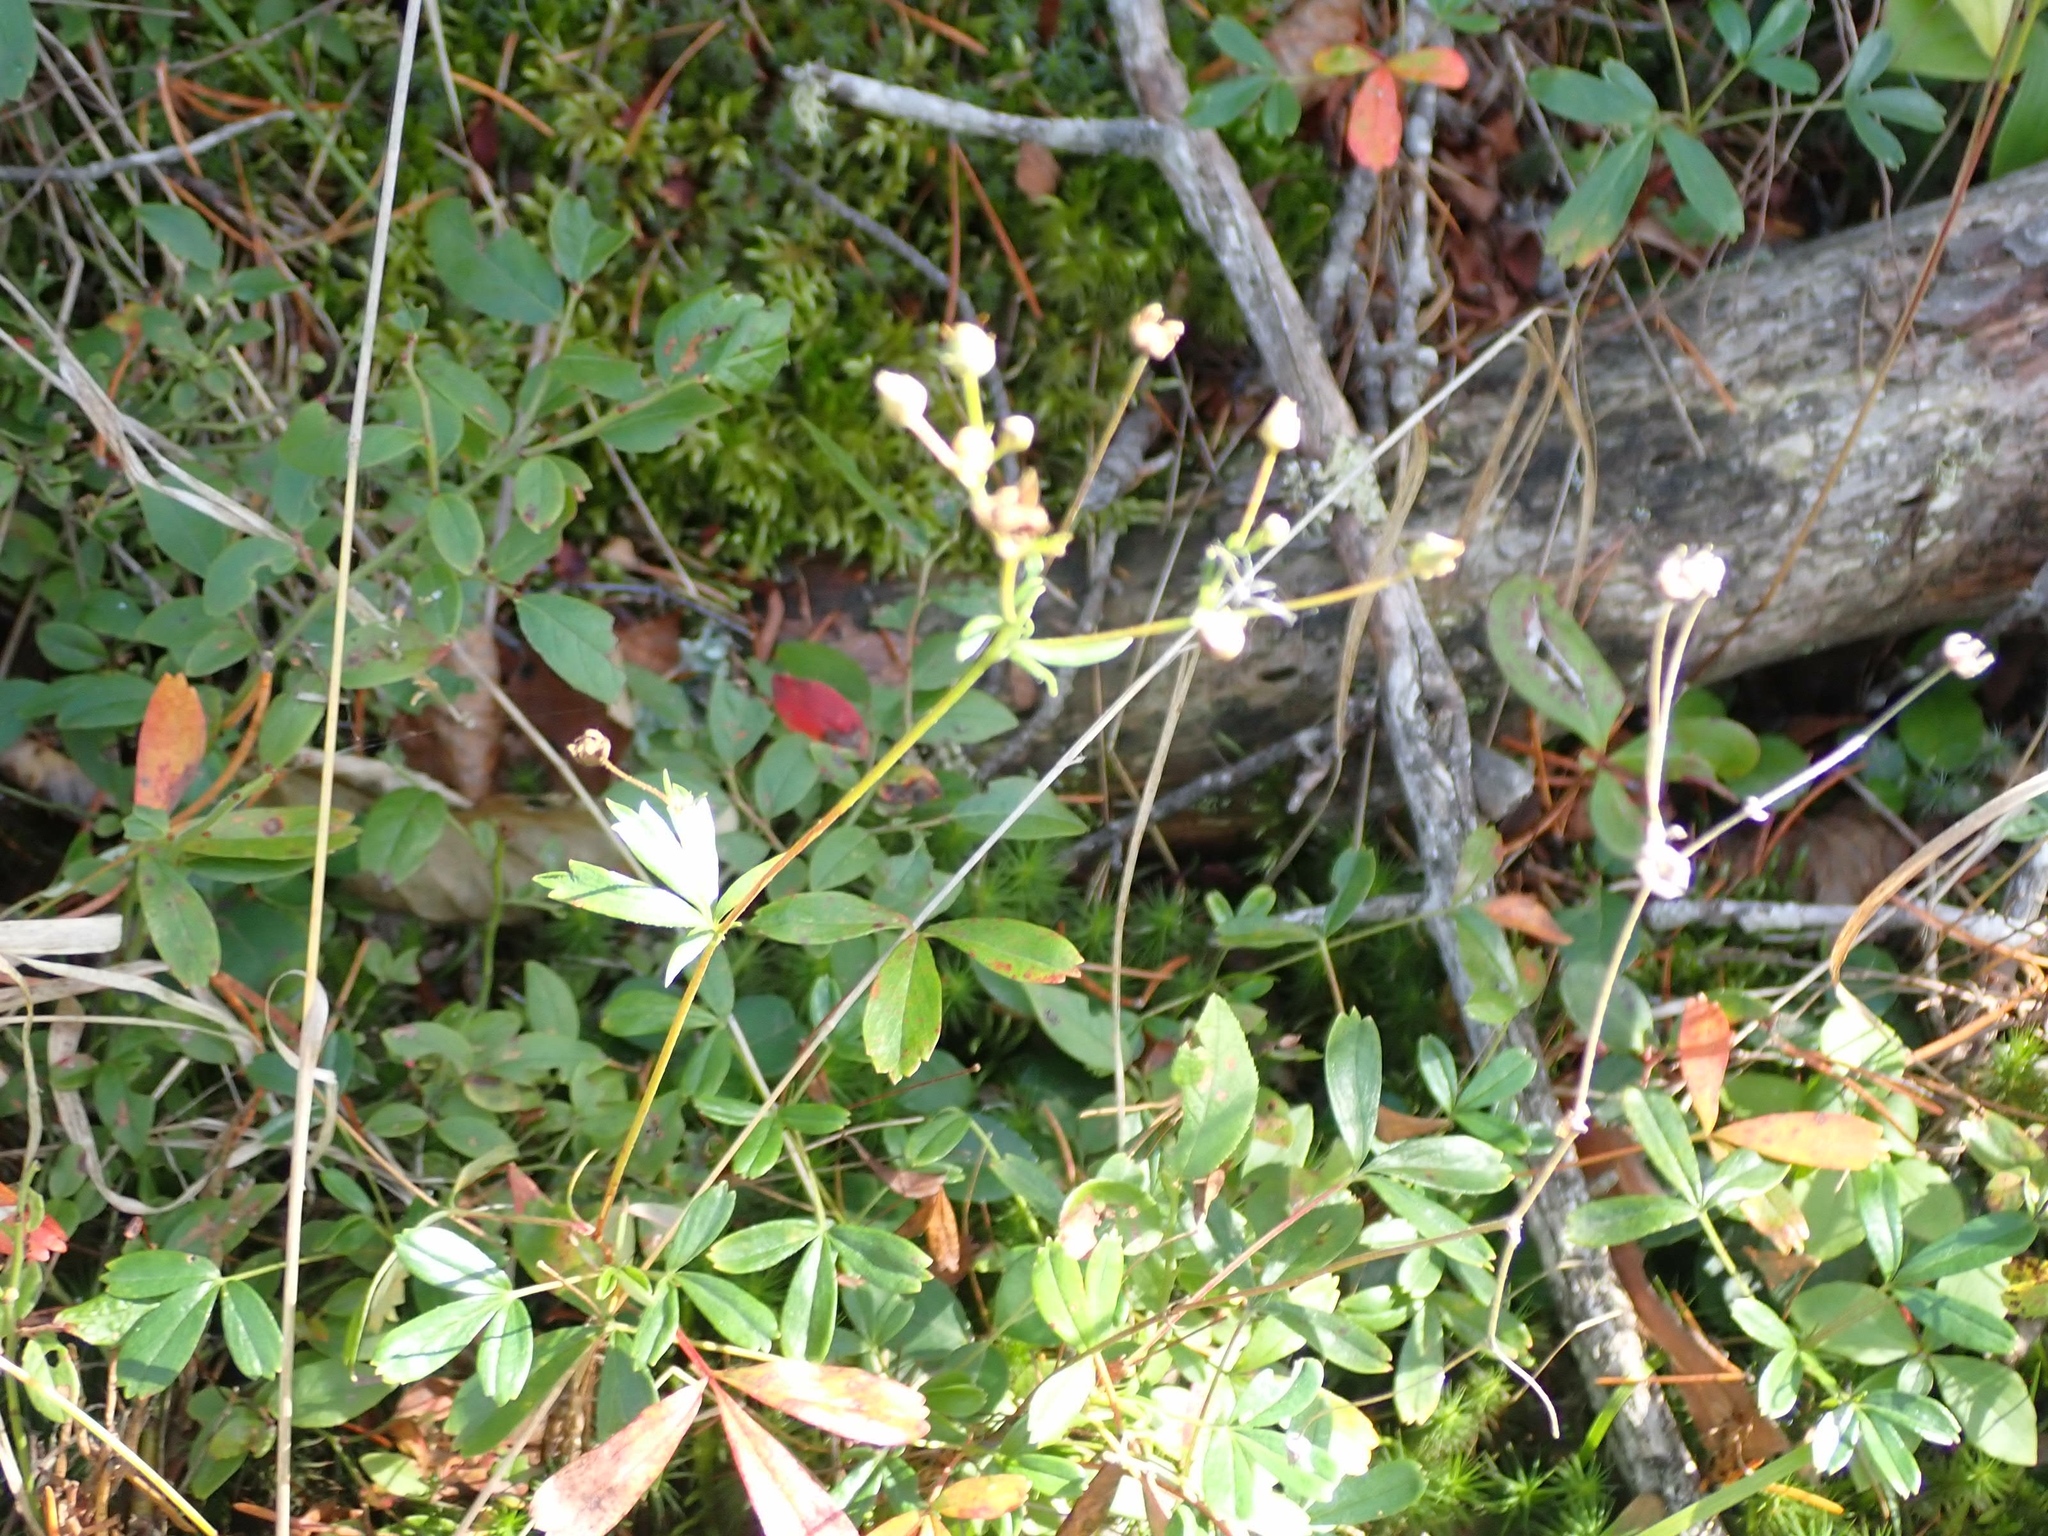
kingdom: Plantae
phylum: Tracheophyta
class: Magnoliopsida
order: Rosales
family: Rosaceae
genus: Sibbaldia
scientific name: Sibbaldia tridentata
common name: Three-toothed cinquefoil
